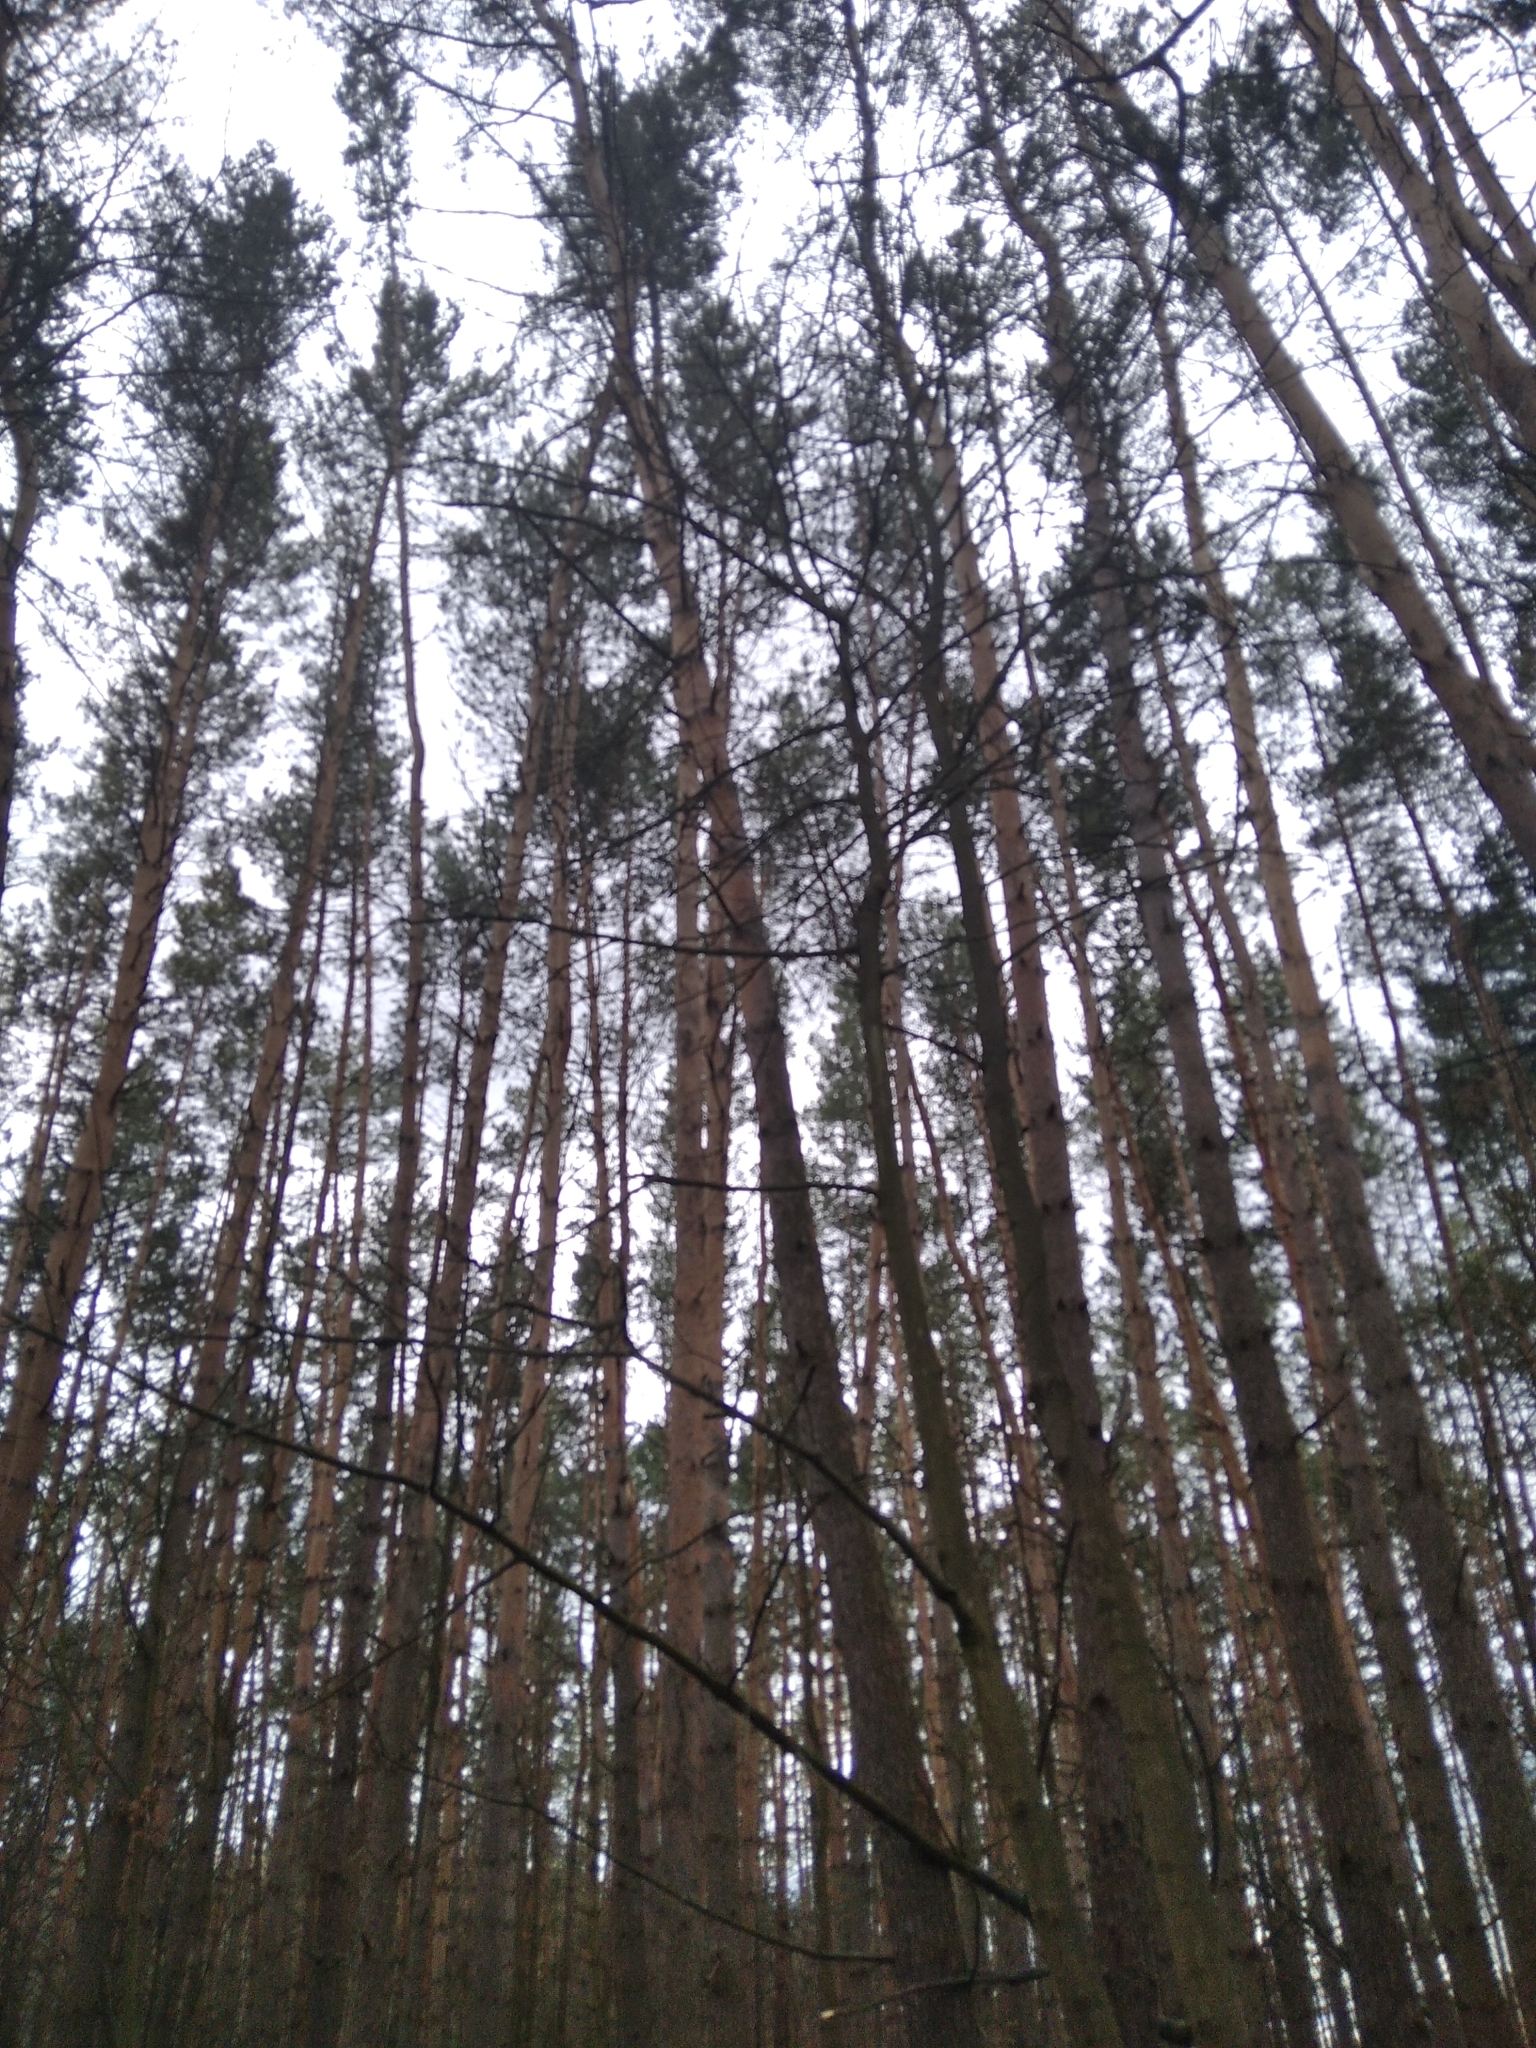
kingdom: Plantae
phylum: Tracheophyta
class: Pinopsida
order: Pinales
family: Pinaceae
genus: Pinus
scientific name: Pinus sylvestris
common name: Scots pine
